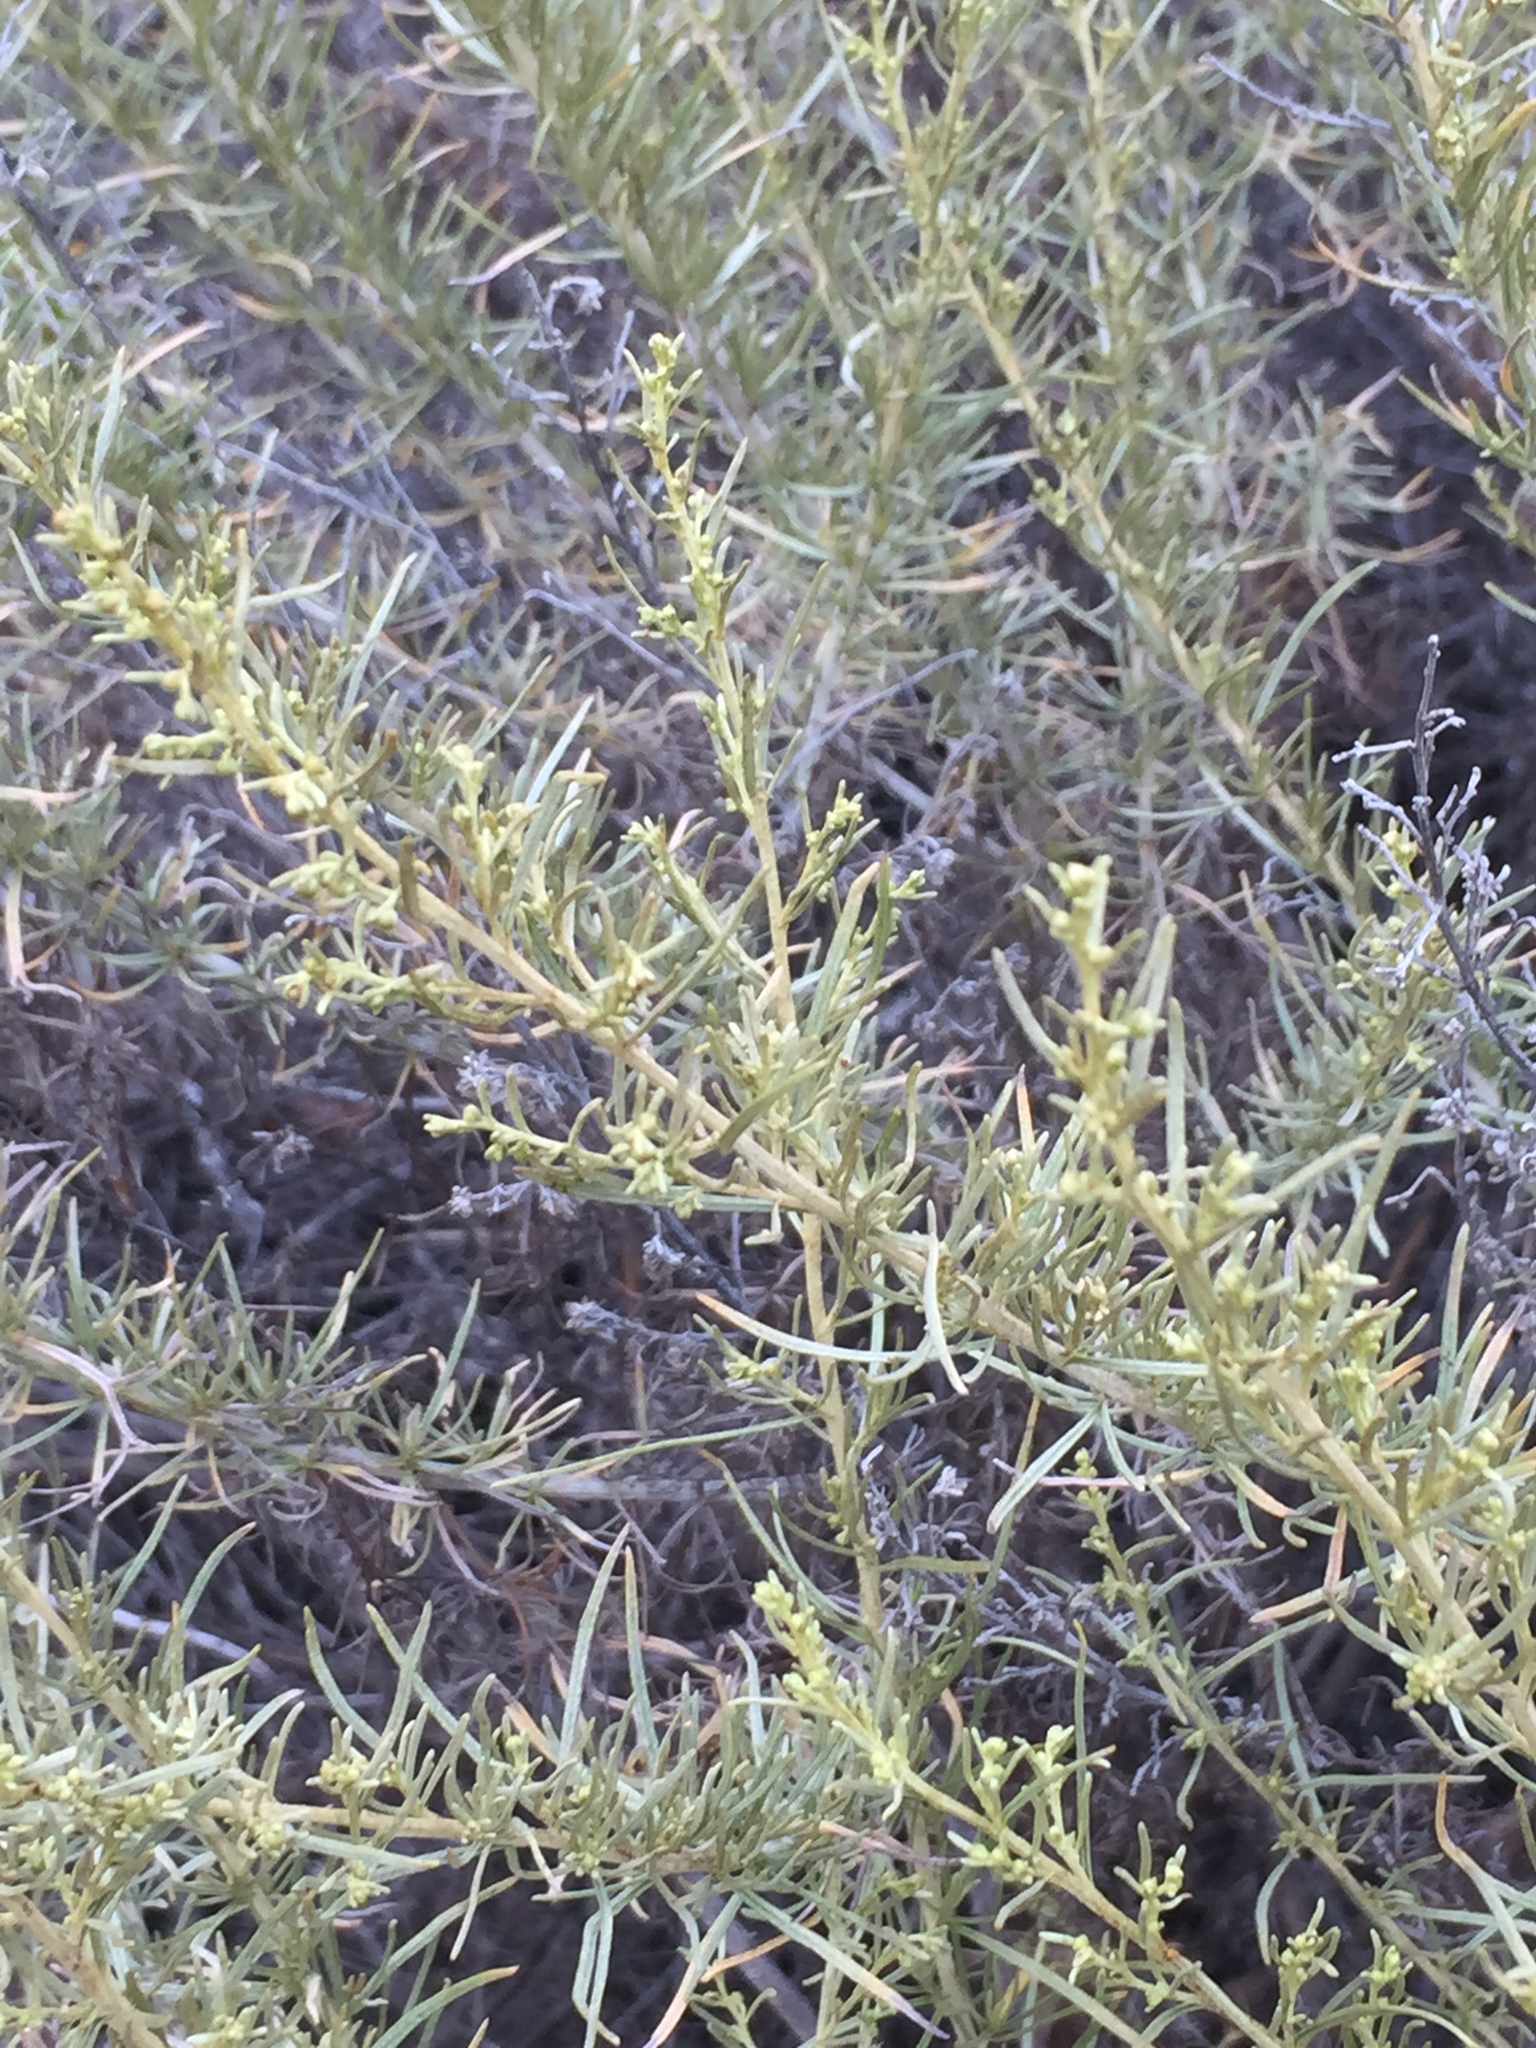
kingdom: Plantae
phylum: Tracheophyta
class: Magnoliopsida
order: Asterales
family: Asteraceae
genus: Artemisia
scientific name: Artemisia californica
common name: California sagebrush
